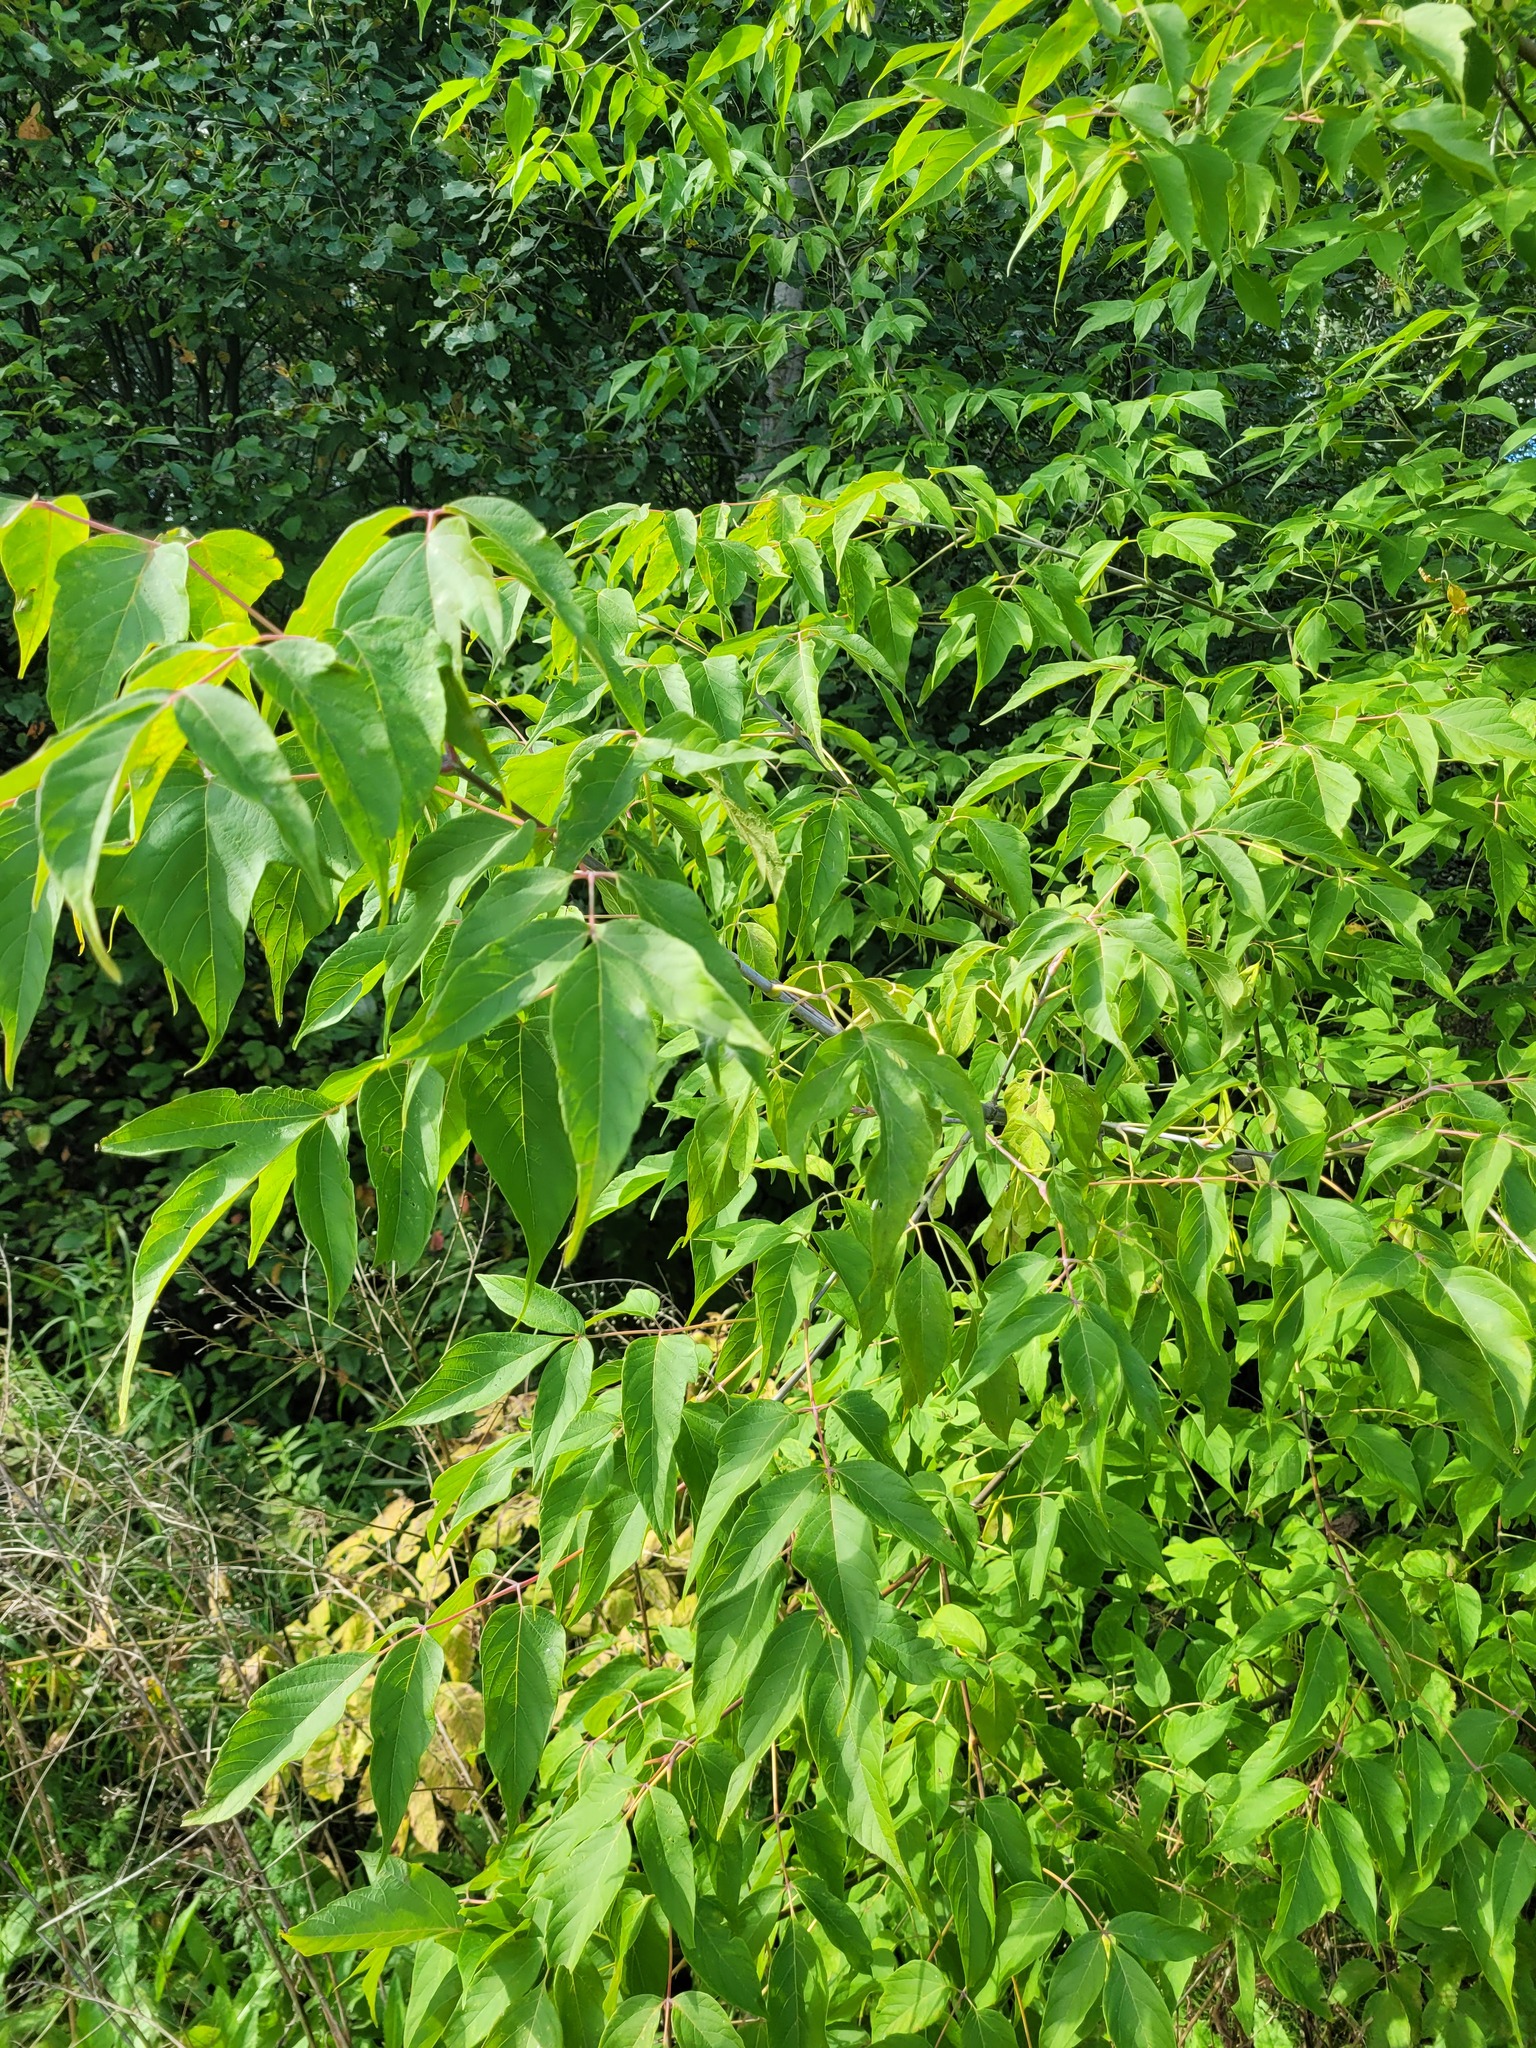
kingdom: Plantae
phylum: Tracheophyta
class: Magnoliopsida
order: Sapindales
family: Sapindaceae
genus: Acer
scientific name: Acer negundo
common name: Ashleaf maple
